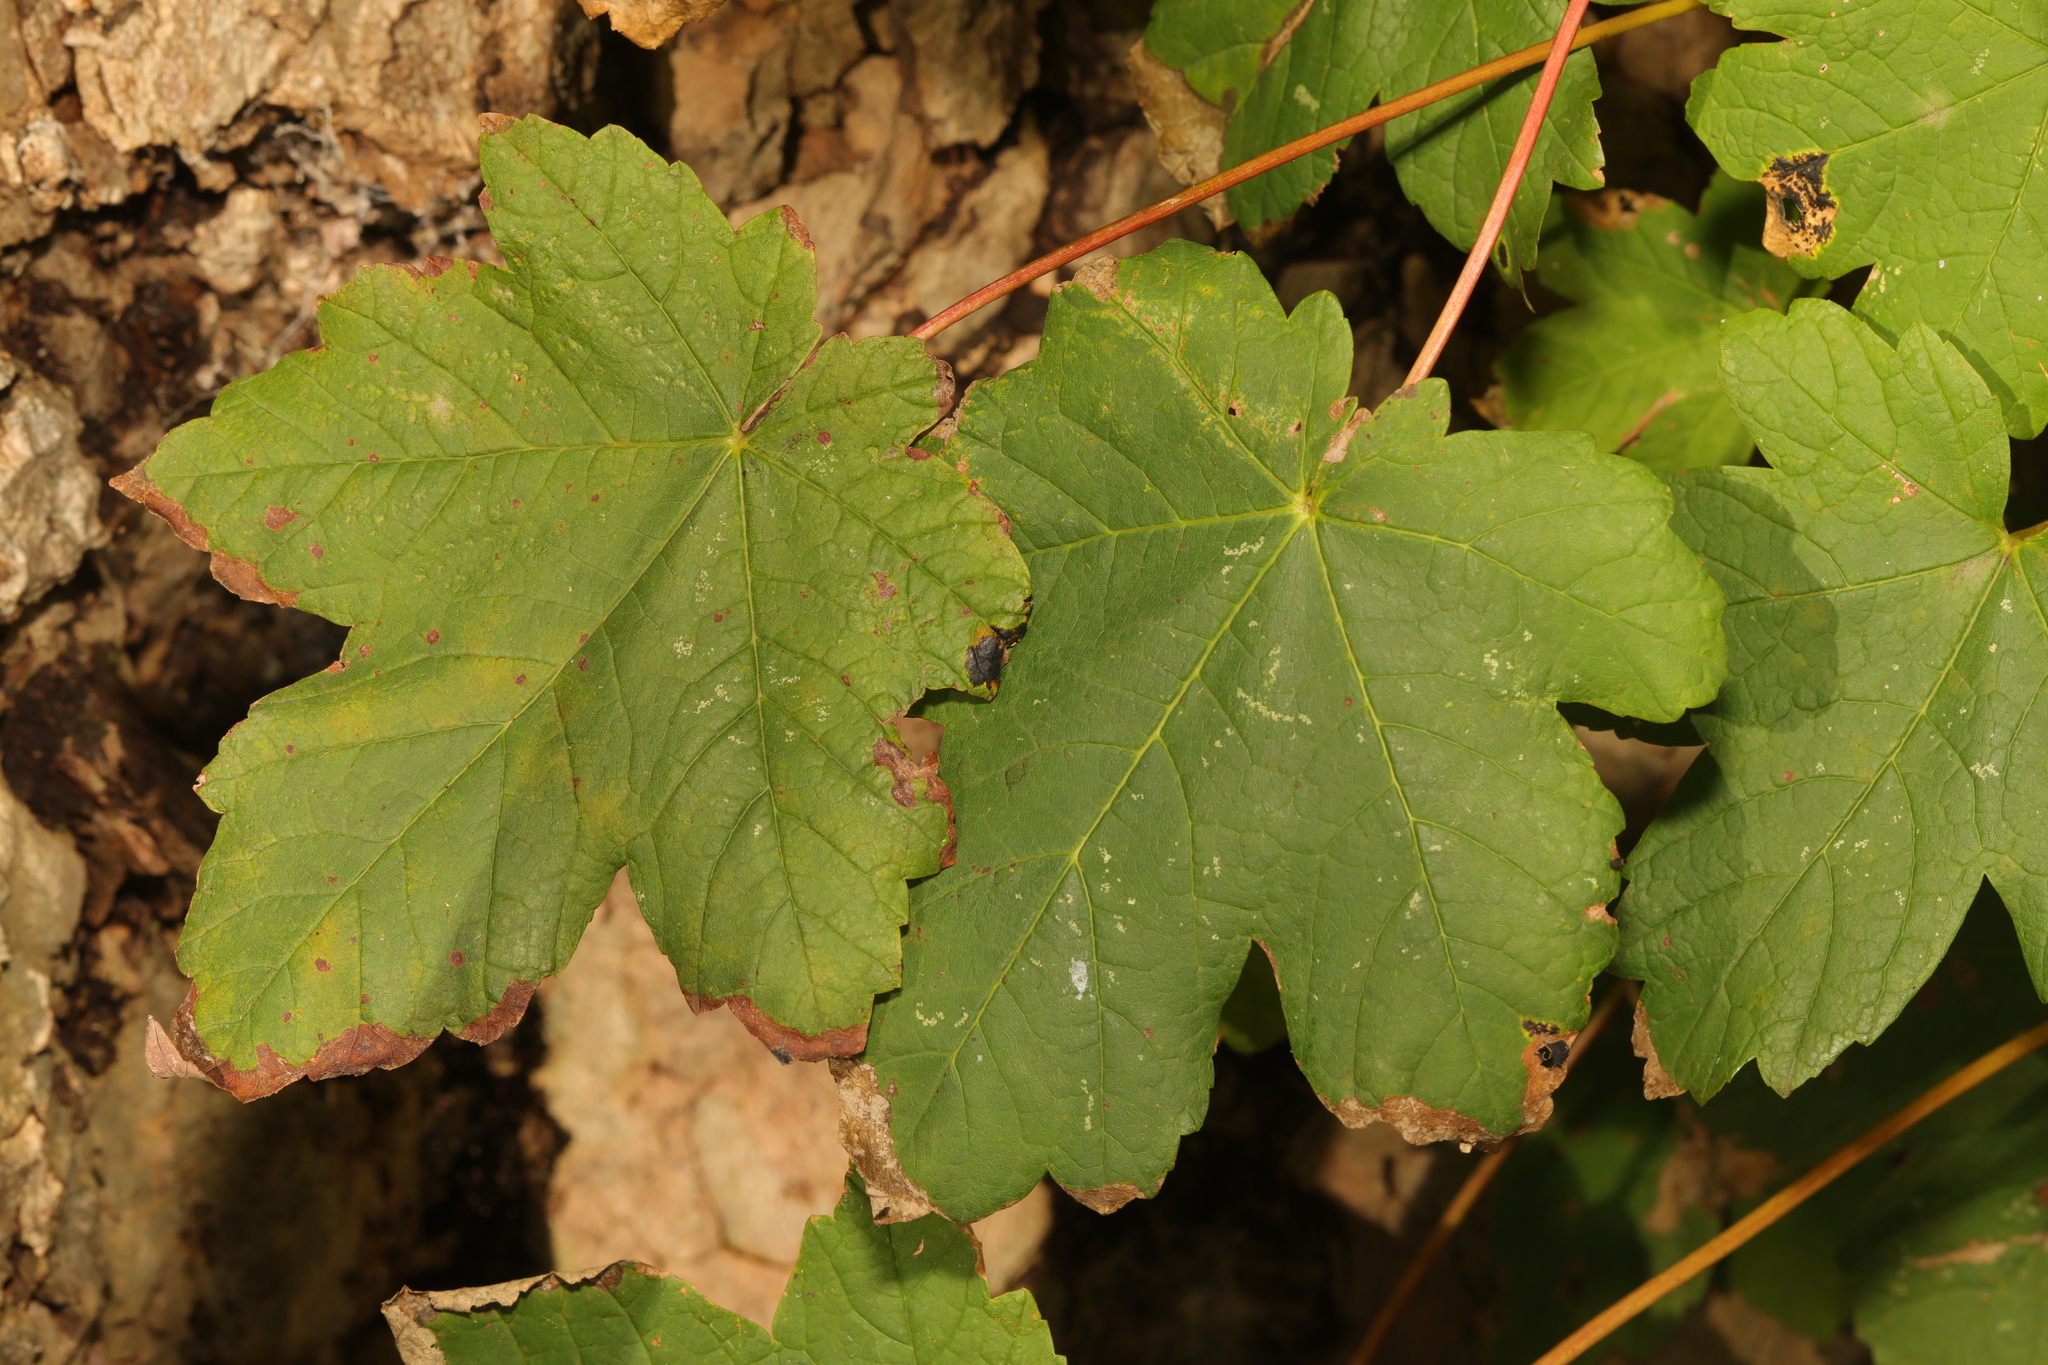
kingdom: Plantae
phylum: Tracheophyta
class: Magnoliopsida
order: Sapindales
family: Sapindaceae
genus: Acer
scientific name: Acer pseudoplatanus
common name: Sycamore
